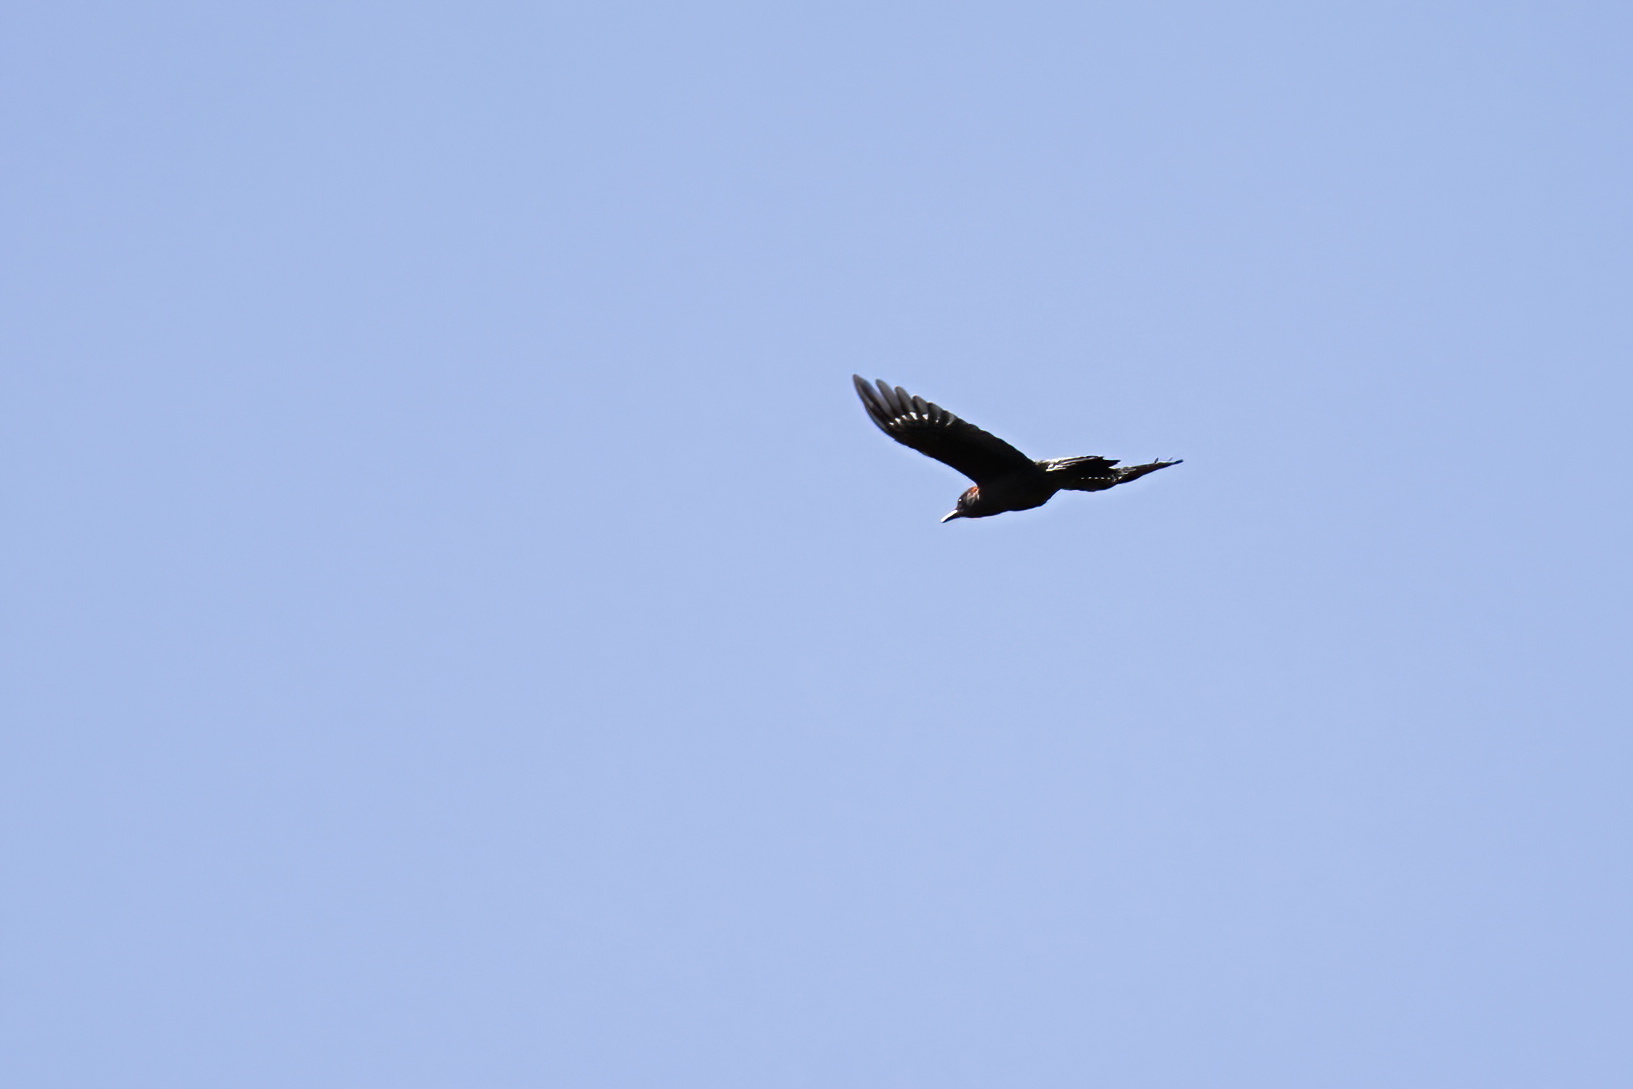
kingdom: Animalia
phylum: Chordata
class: Aves
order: Piciformes
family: Picidae
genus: Melanerpes
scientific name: Melanerpes carolinus
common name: Red-bellied woodpecker
